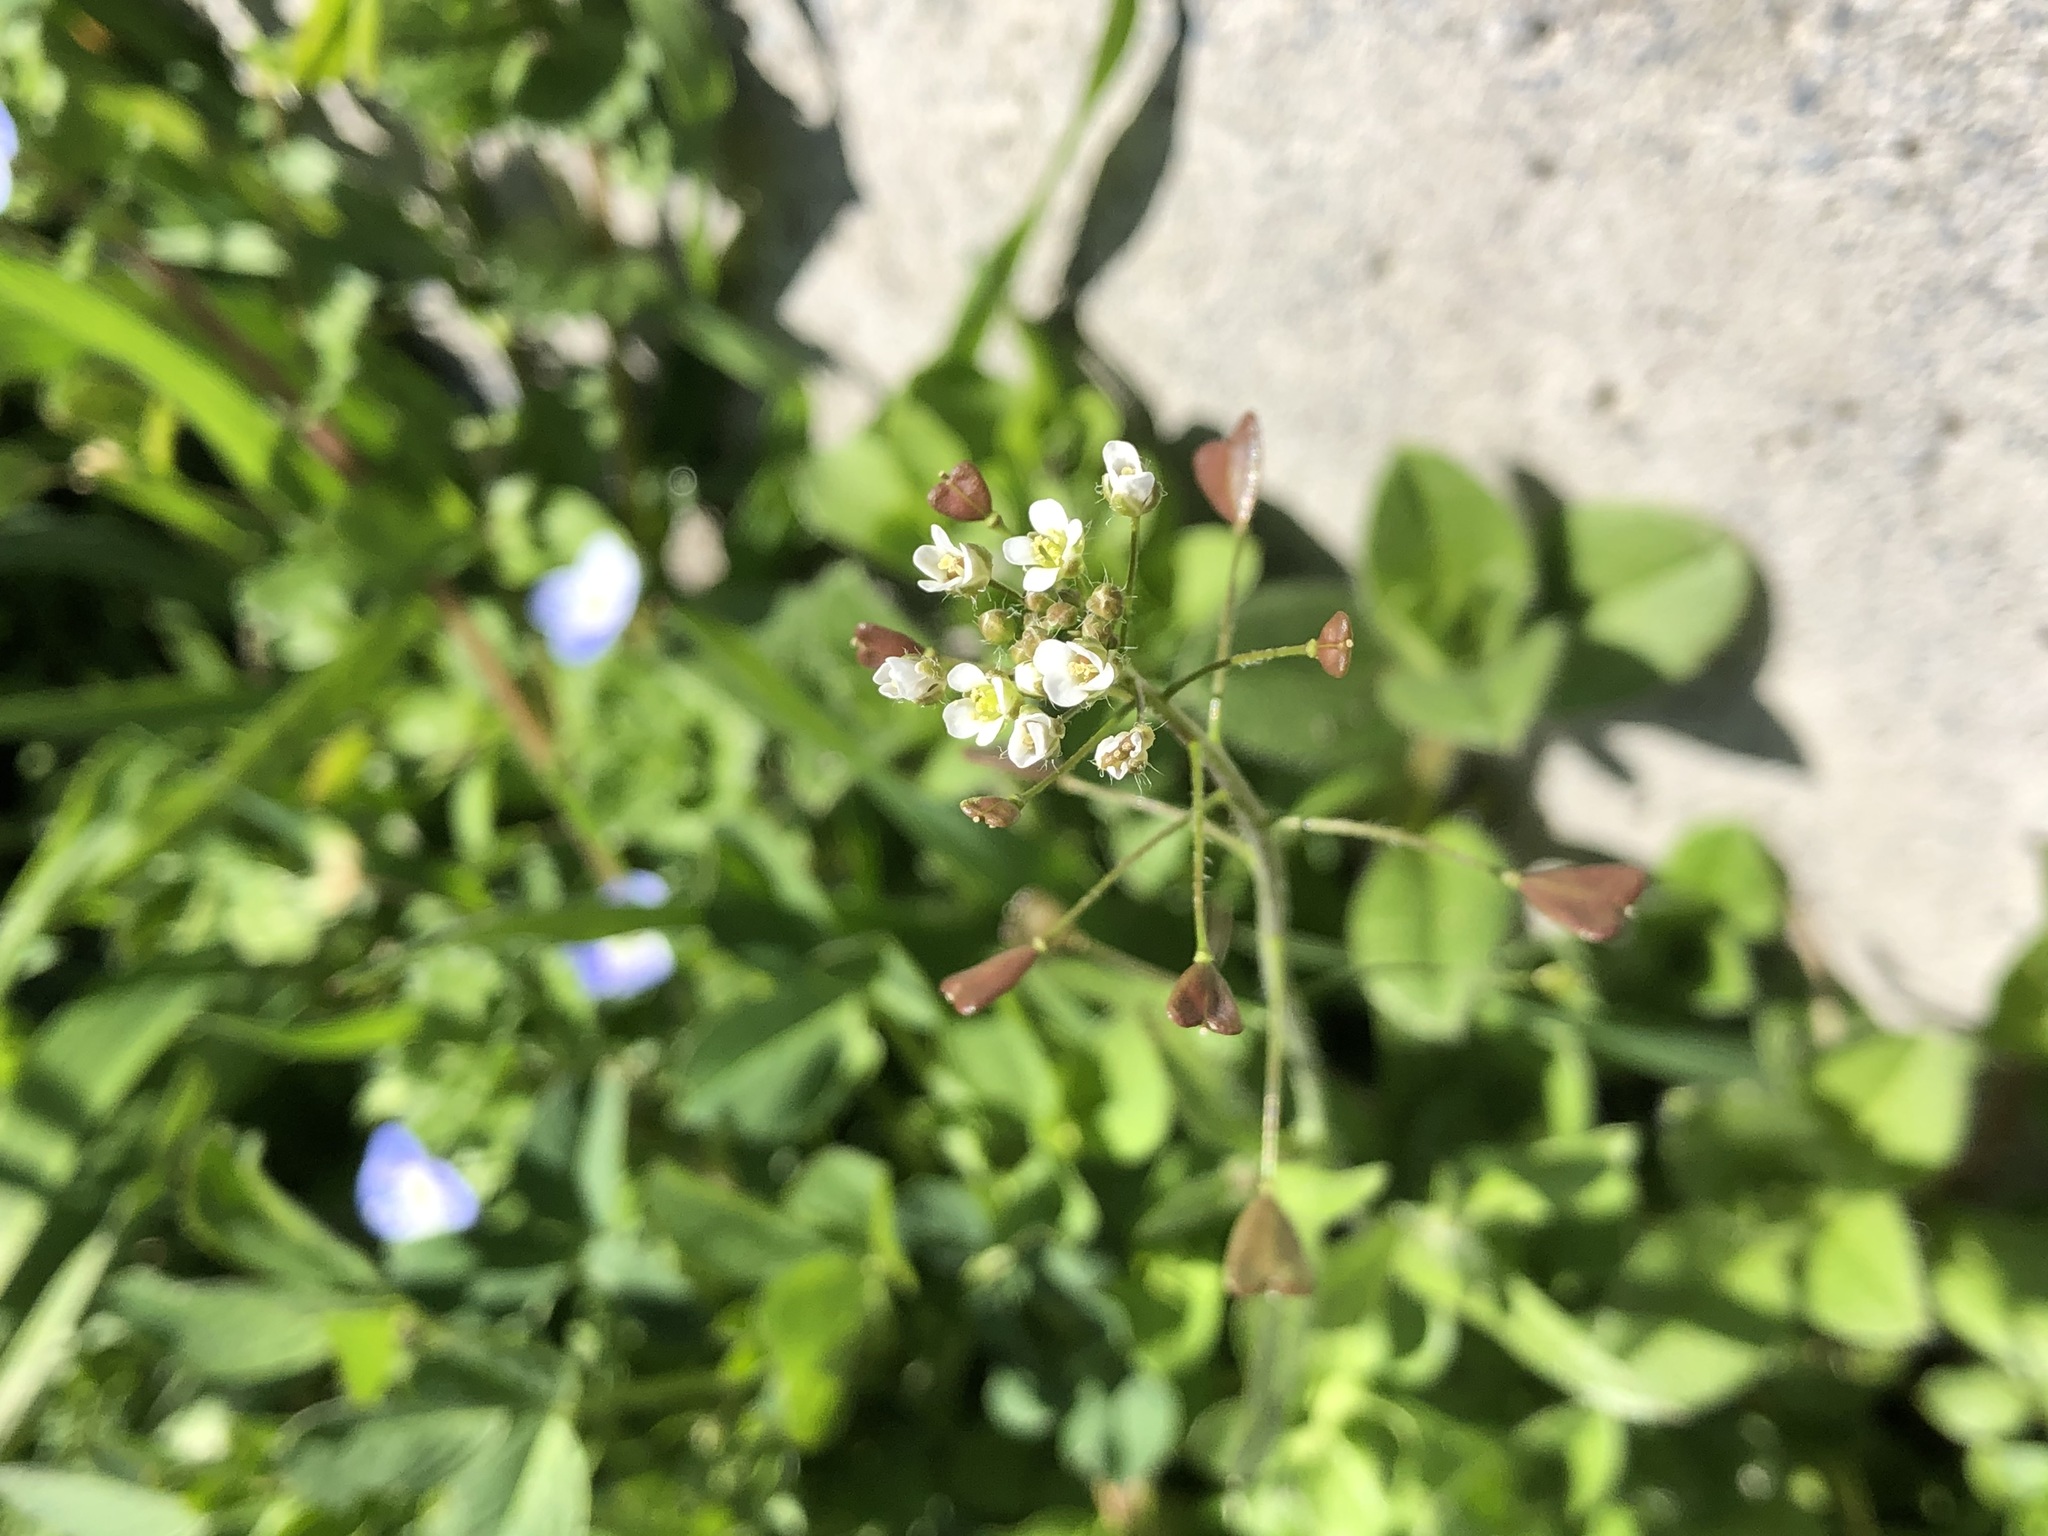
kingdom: Plantae
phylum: Tracheophyta
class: Magnoliopsida
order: Brassicales
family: Brassicaceae
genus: Capsella
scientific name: Capsella bursa-pastoris
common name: Shepherd's purse
